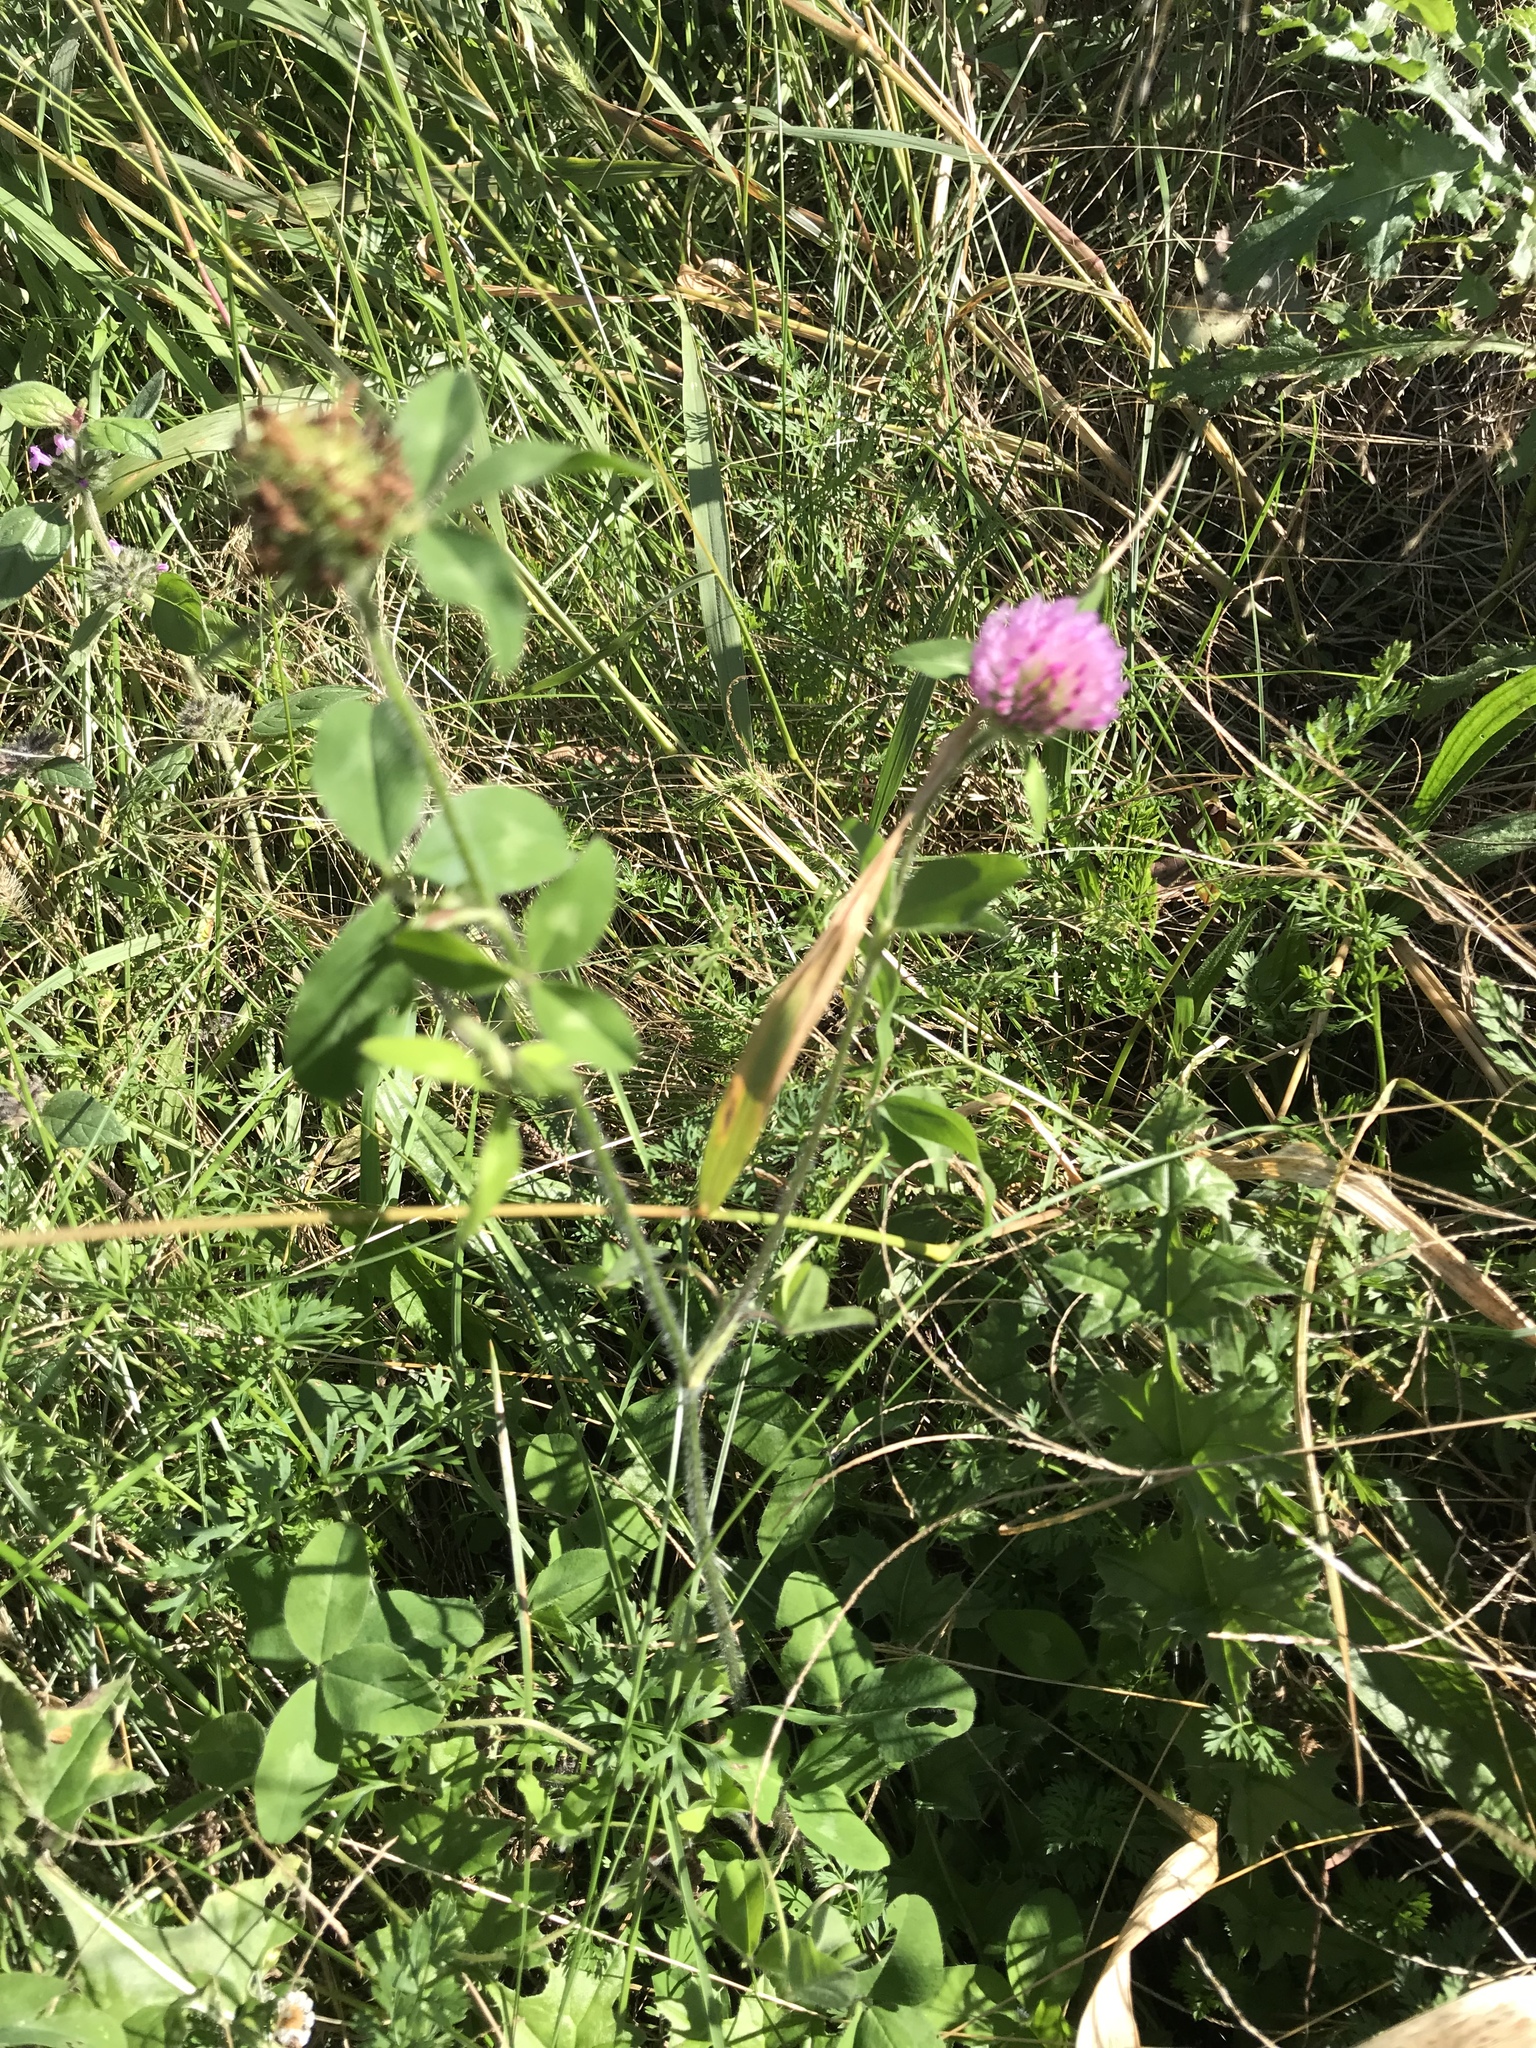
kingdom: Plantae
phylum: Tracheophyta
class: Magnoliopsida
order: Fabales
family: Fabaceae
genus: Trifolium
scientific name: Trifolium pratense
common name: Red clover
